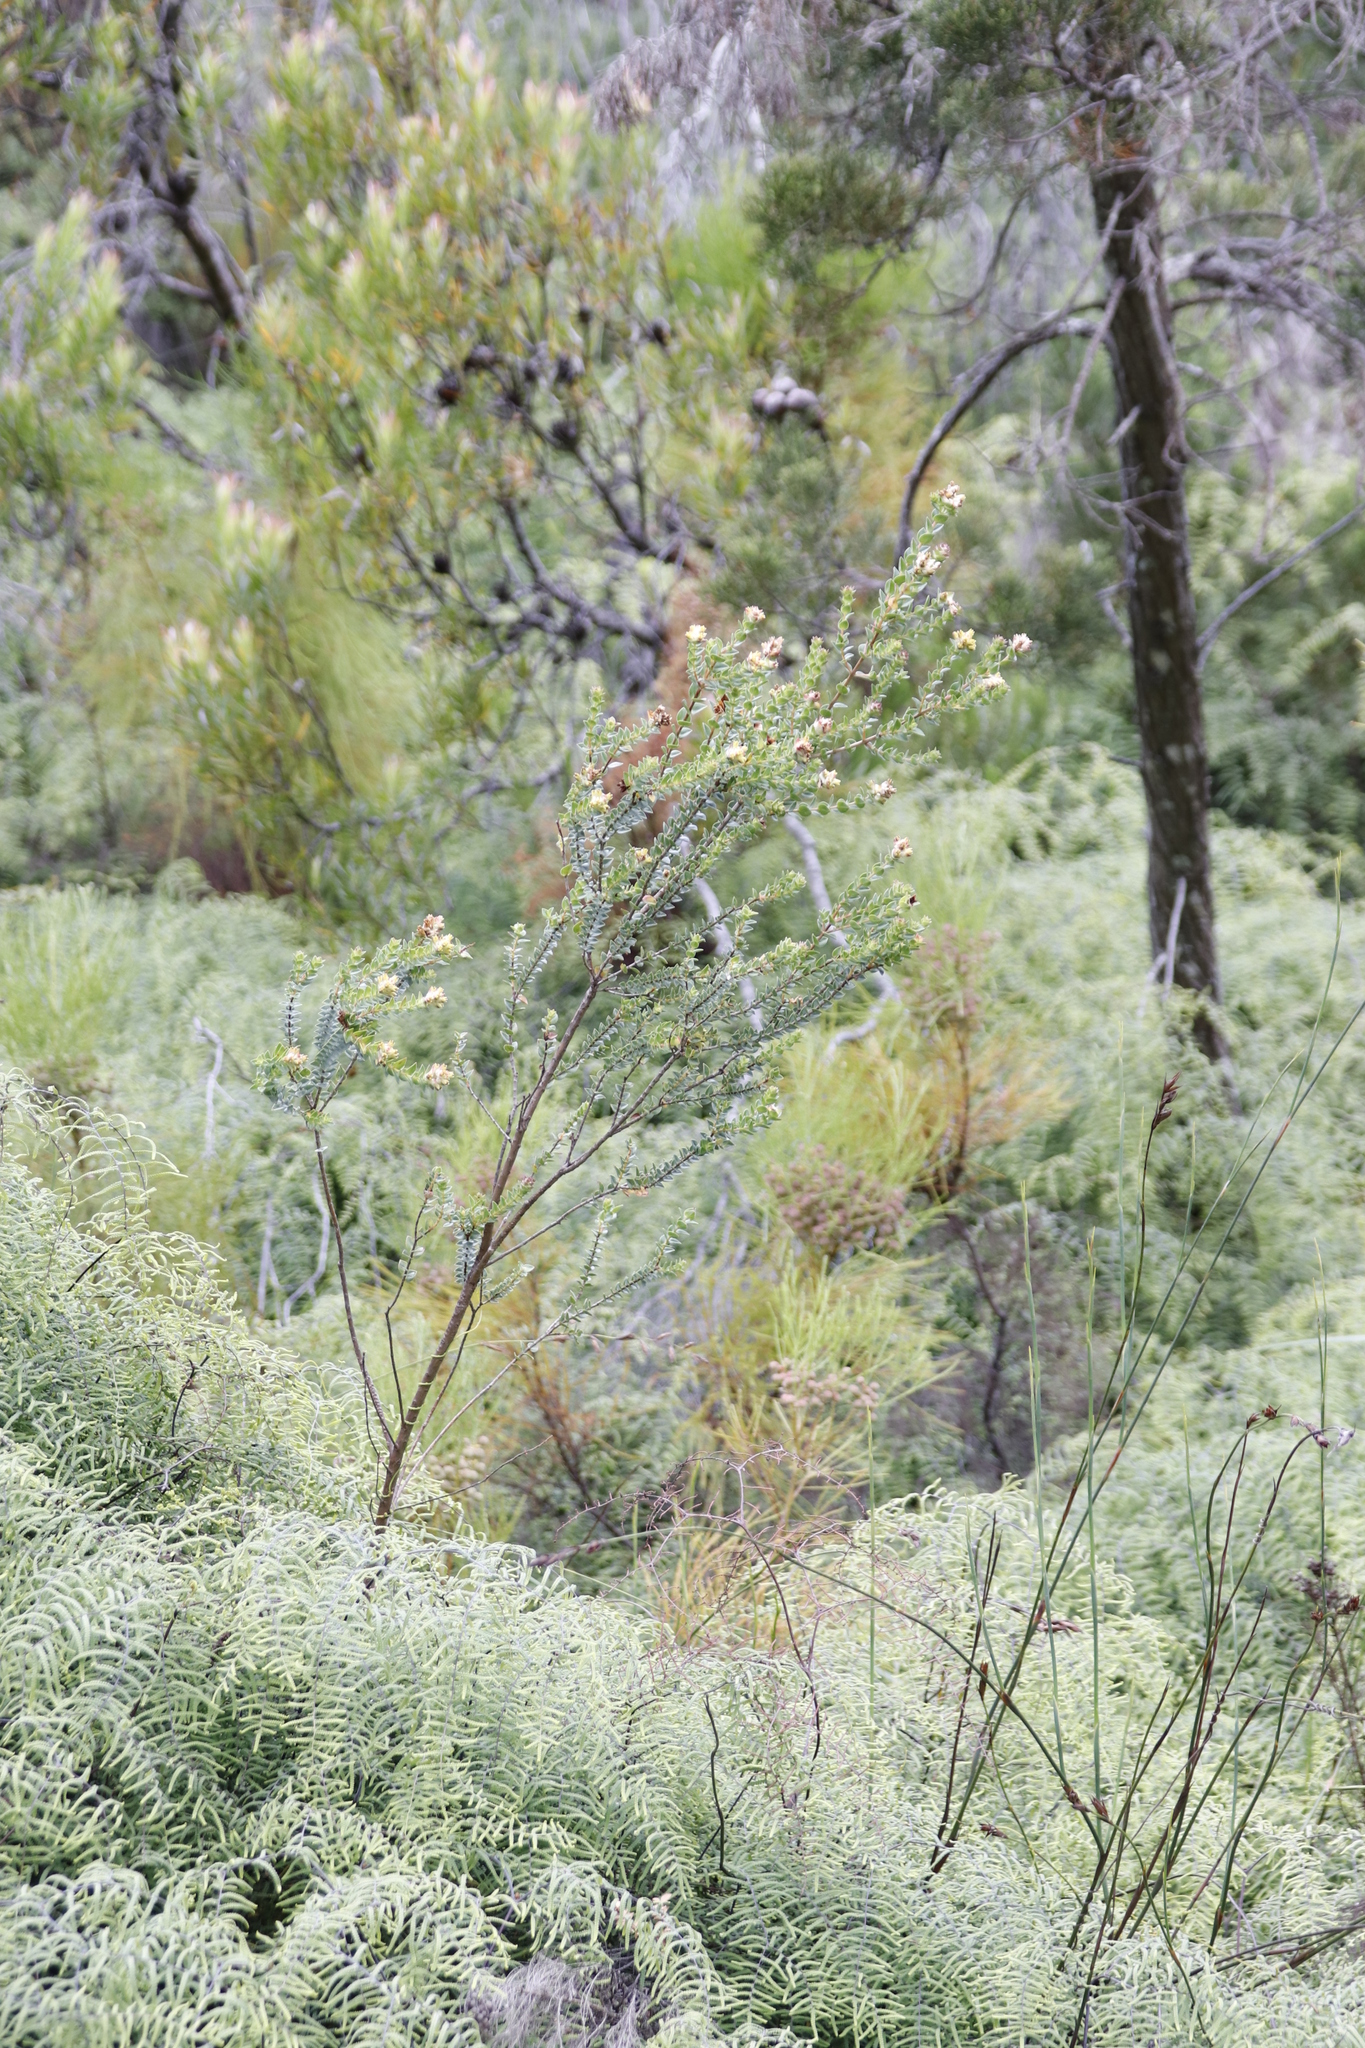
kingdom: Plantae
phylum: Tracheophyta
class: Magnoliopsida
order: Myrtales
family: Penaeaceae
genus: Penaea
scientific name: Penaea cneorum
